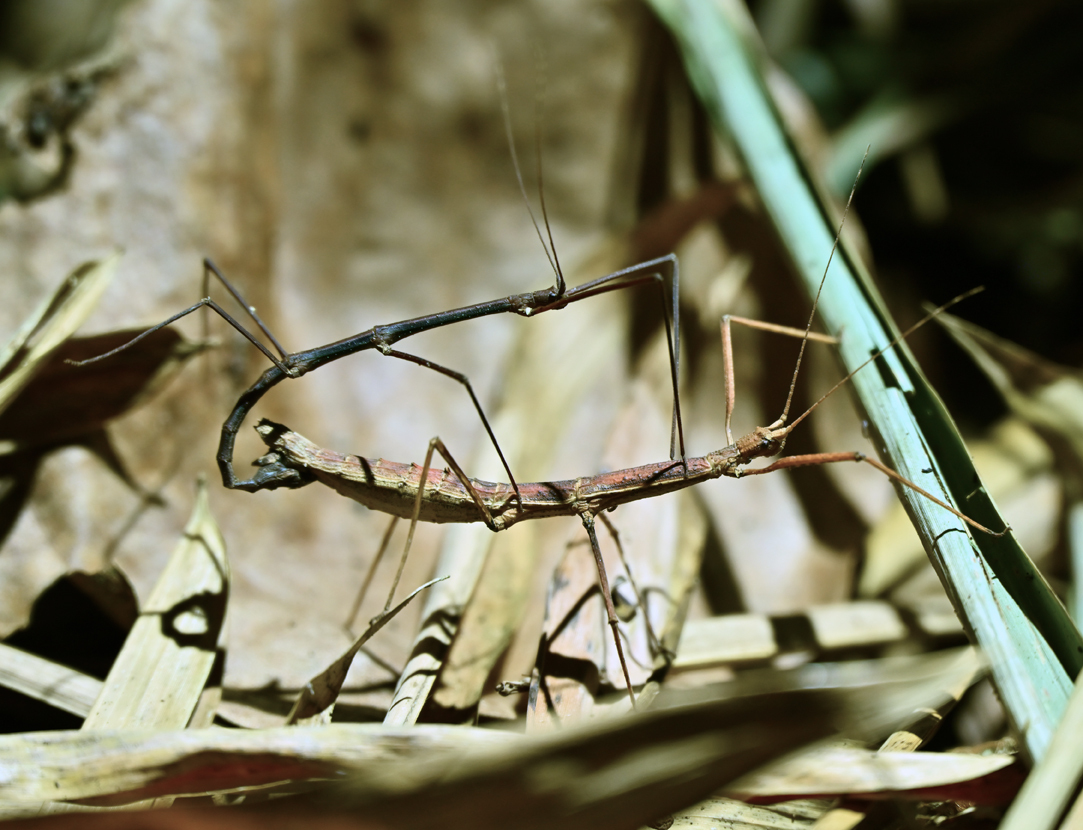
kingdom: Animalia
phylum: Arthropoda
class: Insecta
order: Phasmida
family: Diapheromeridae
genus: Ocnophiloidea
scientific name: Ocnophiloidea regularis
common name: Trinidad twig
